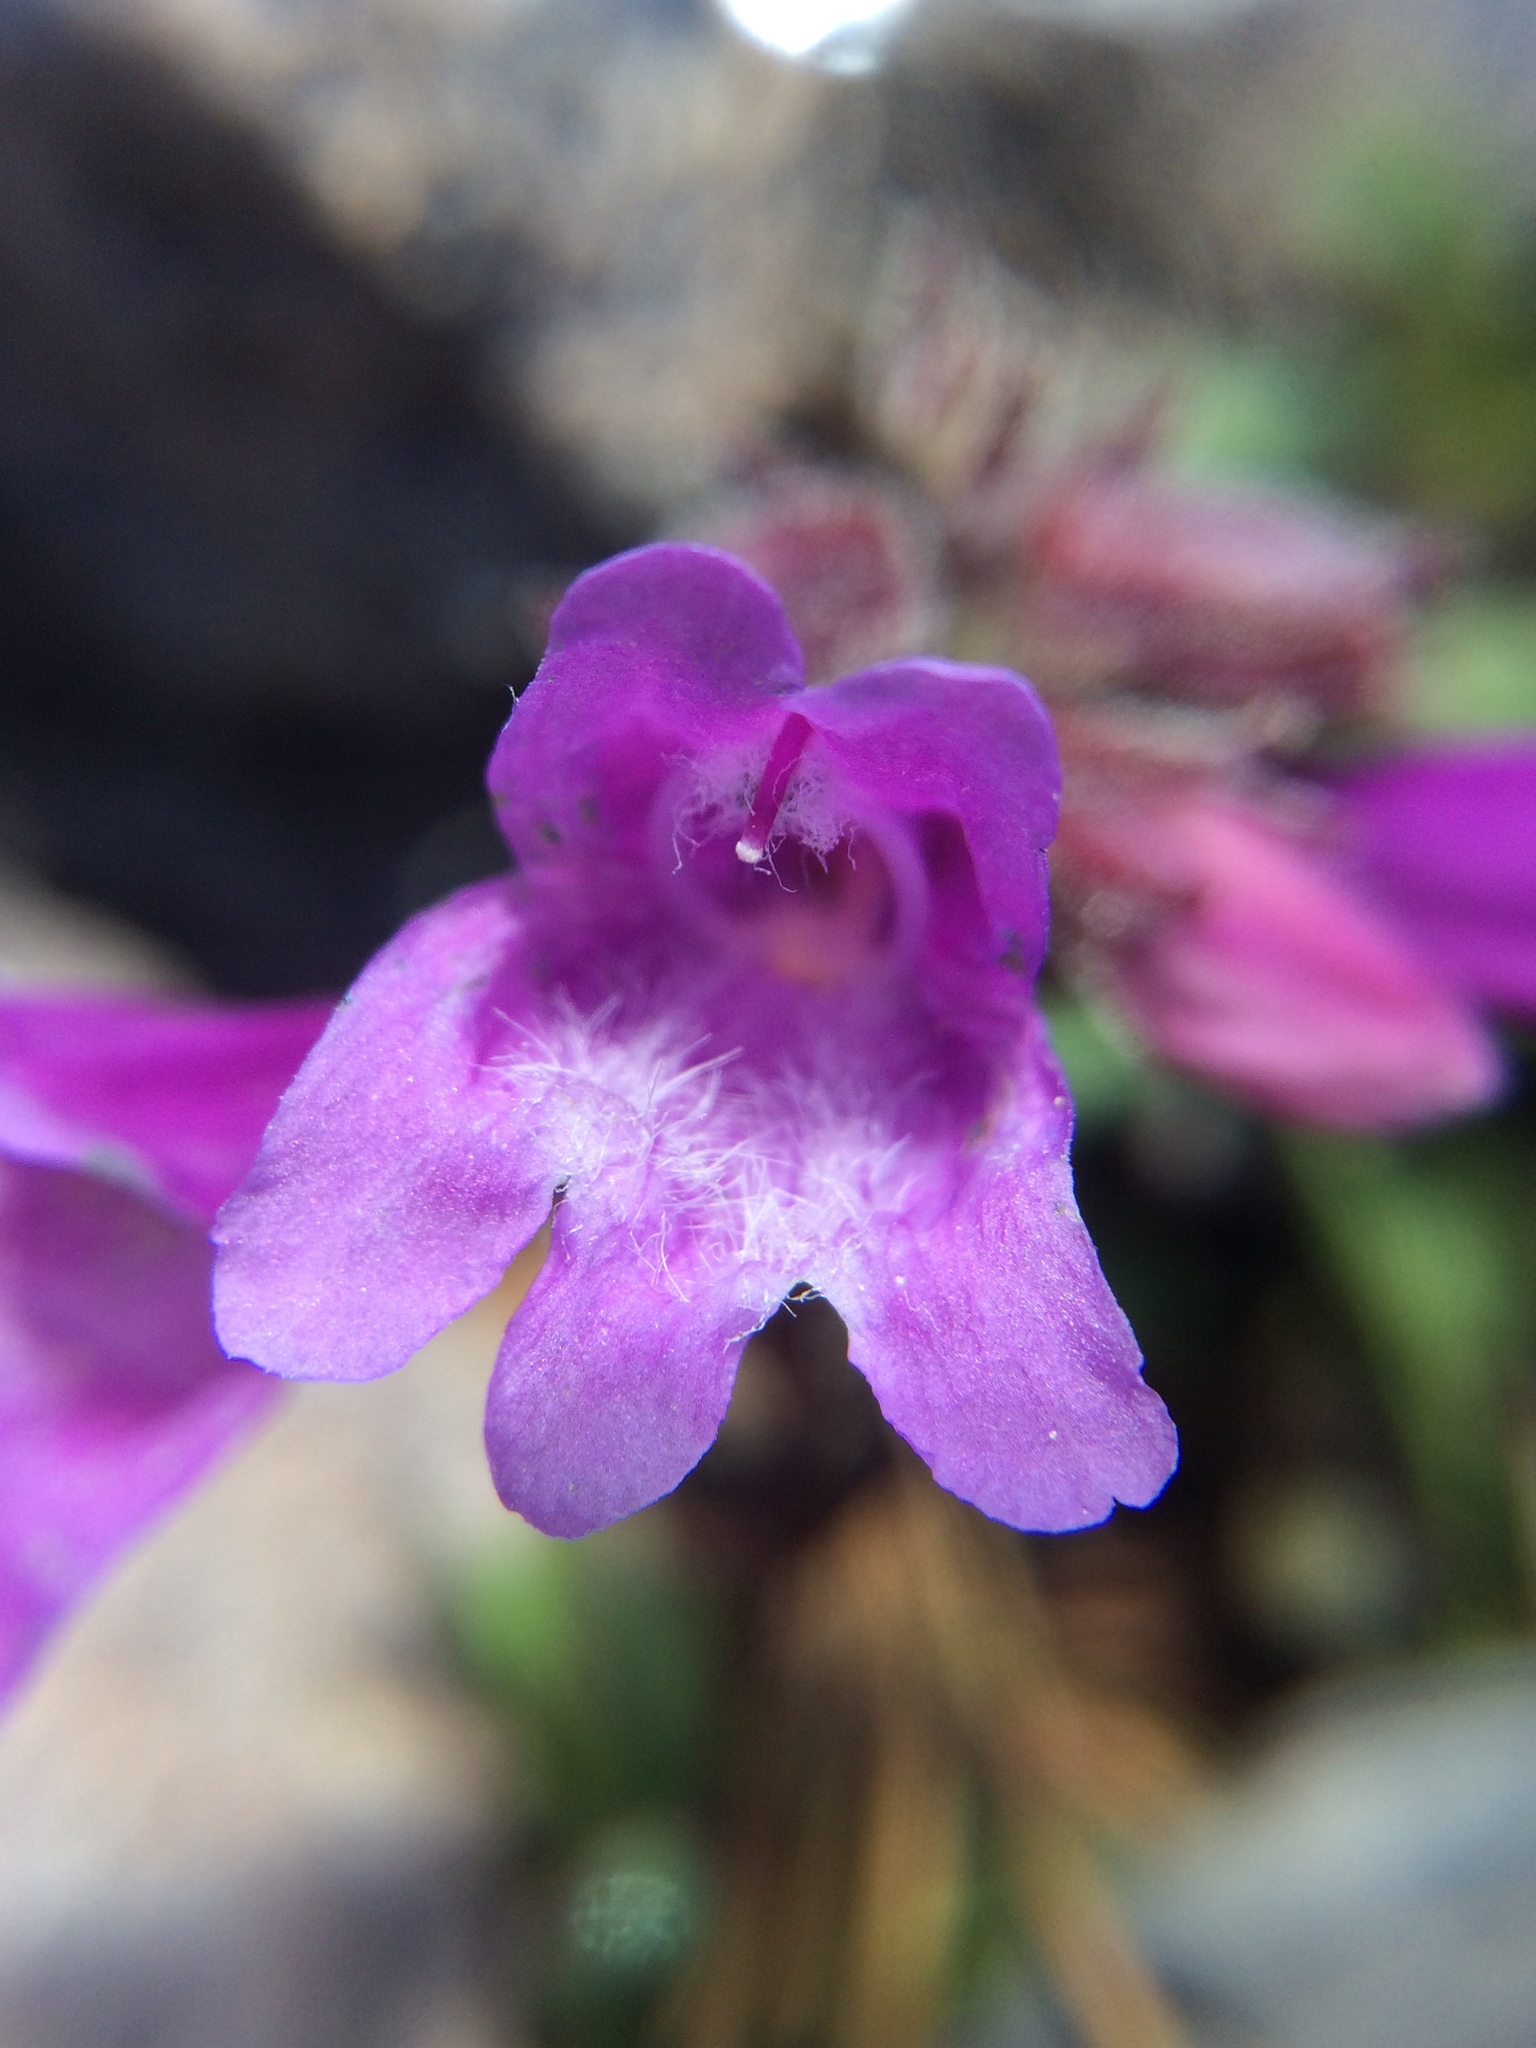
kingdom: Plantae
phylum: Tracheophyta
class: Magnoliopsida
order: Lamiales
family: Plantaginaceae
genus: Penstemon
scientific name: Penstemon newberryi
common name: Mountain-pride
